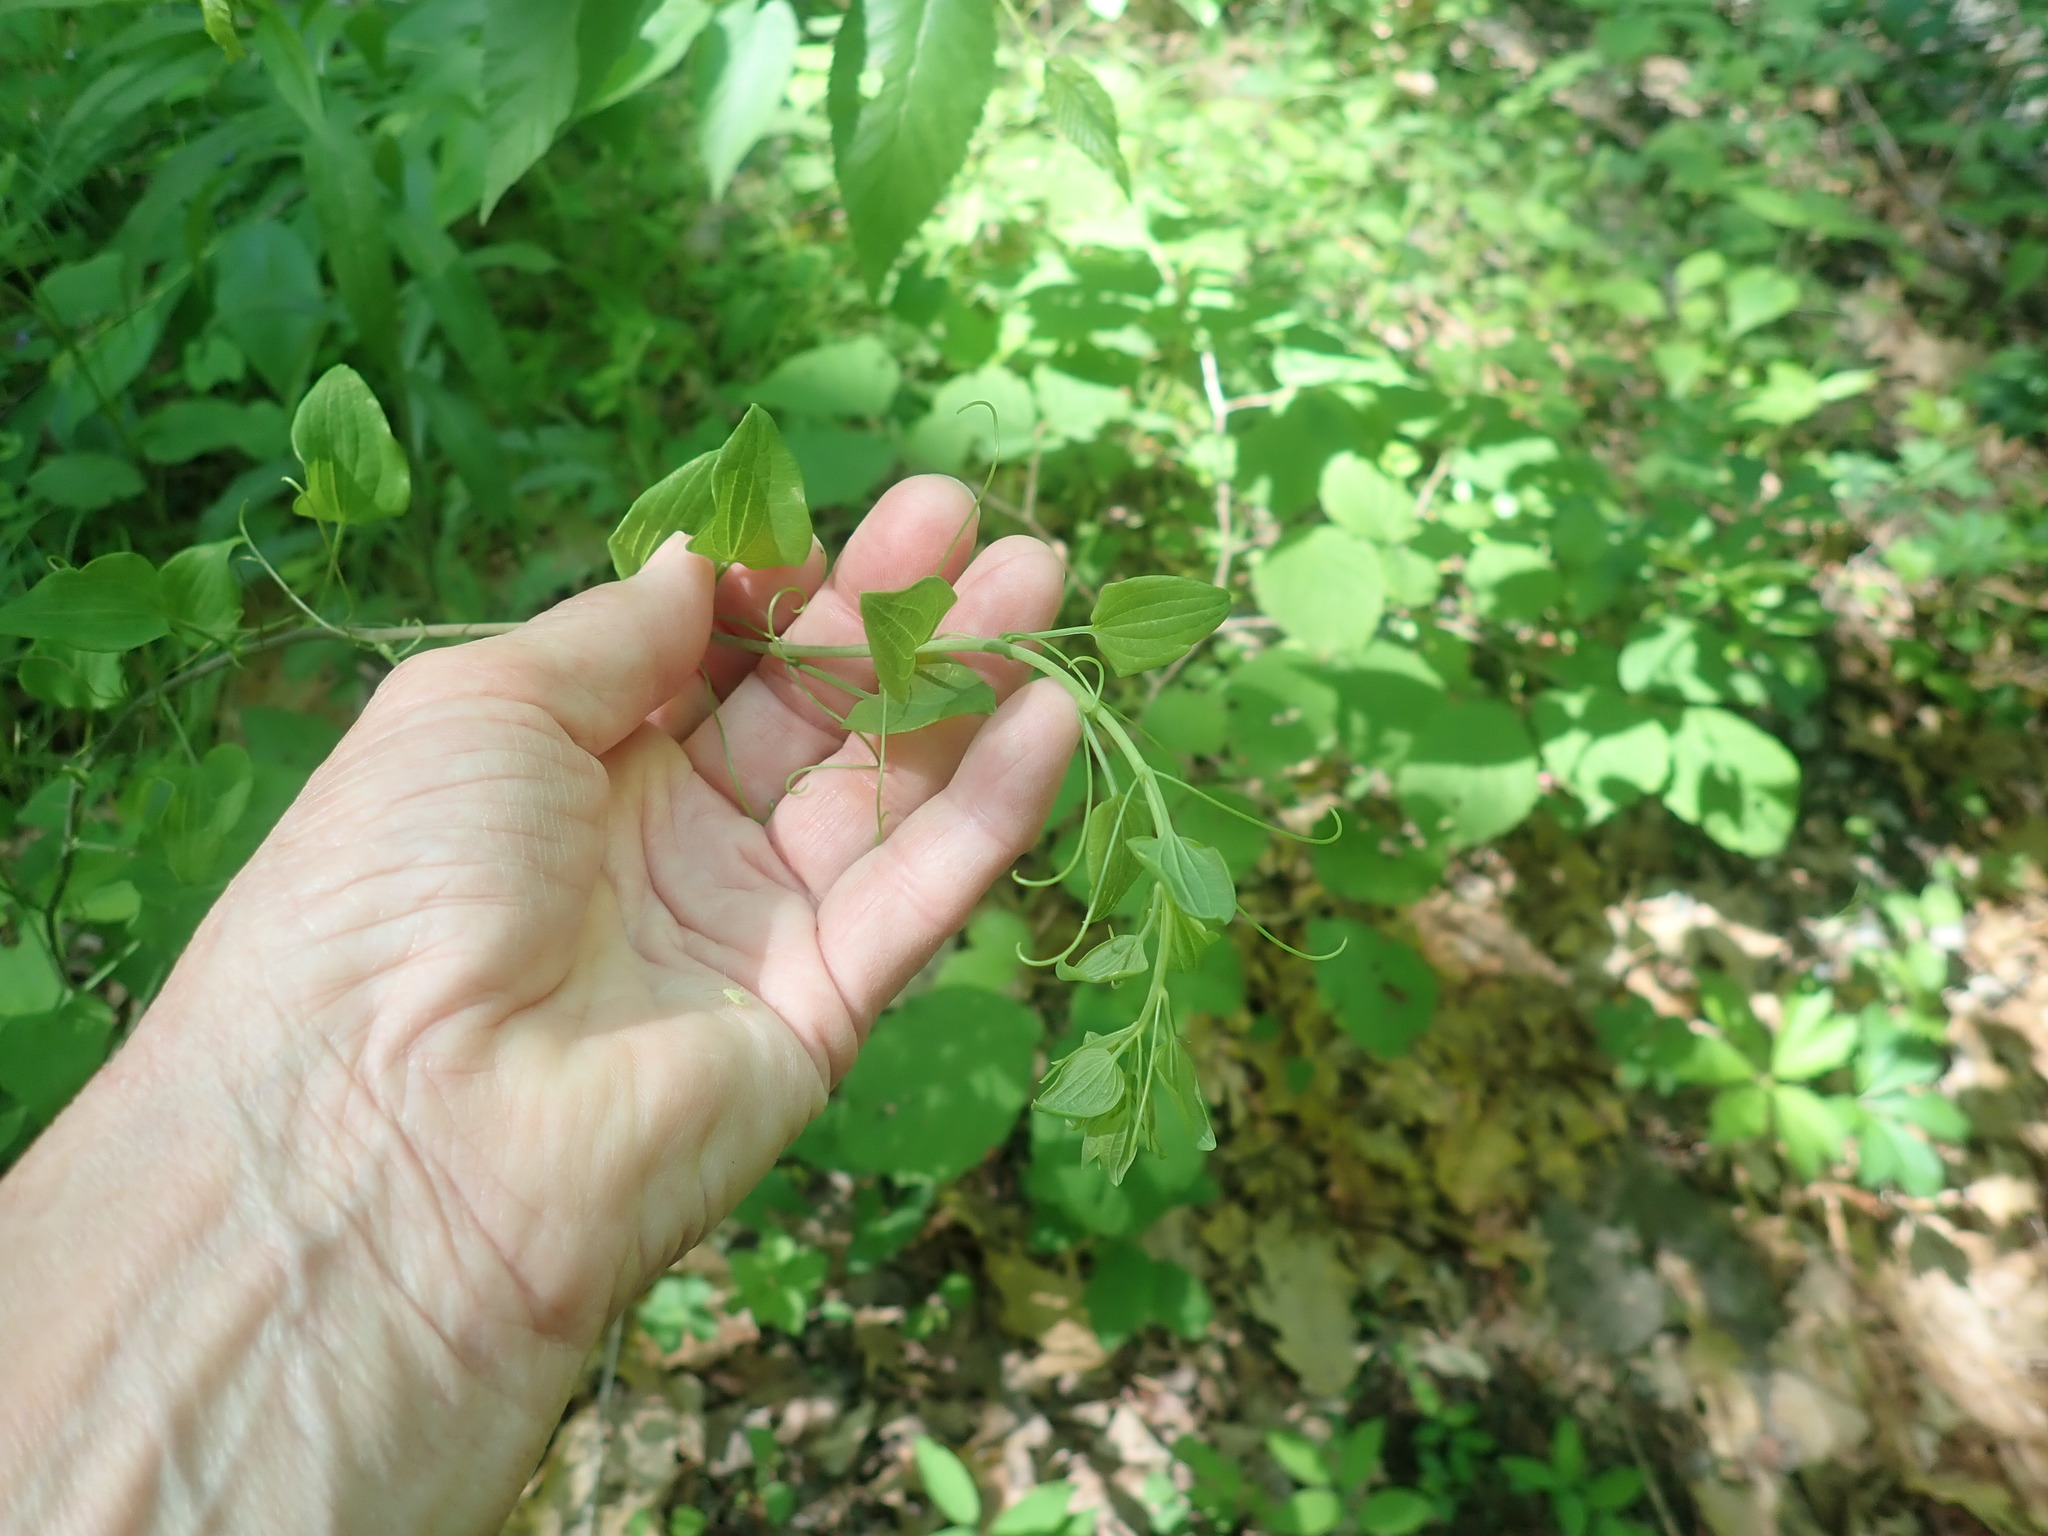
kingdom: Plantae
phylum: Tracheophyta
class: Liliopsida
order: Liliales
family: Smilacaceae
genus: Smilax
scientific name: Smilax herbacea
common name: Jacob's-ladder
